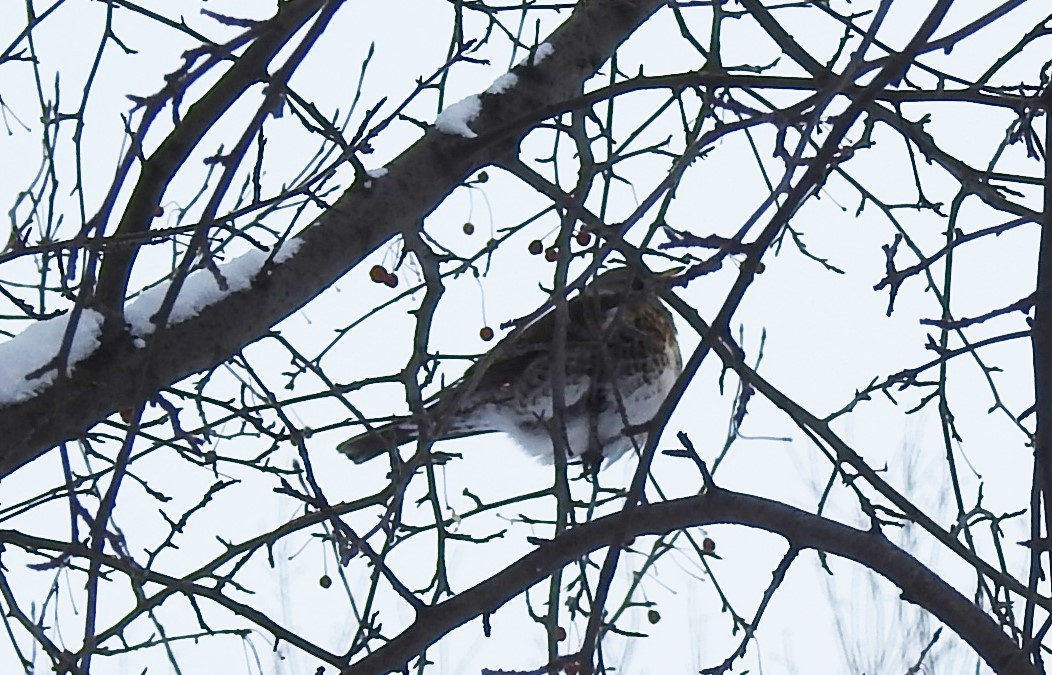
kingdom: Animalia
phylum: Chordata
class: Aves
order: Passeriformes
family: Turdidae
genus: Turdus
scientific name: Turdus pilaris
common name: Fieldfare
